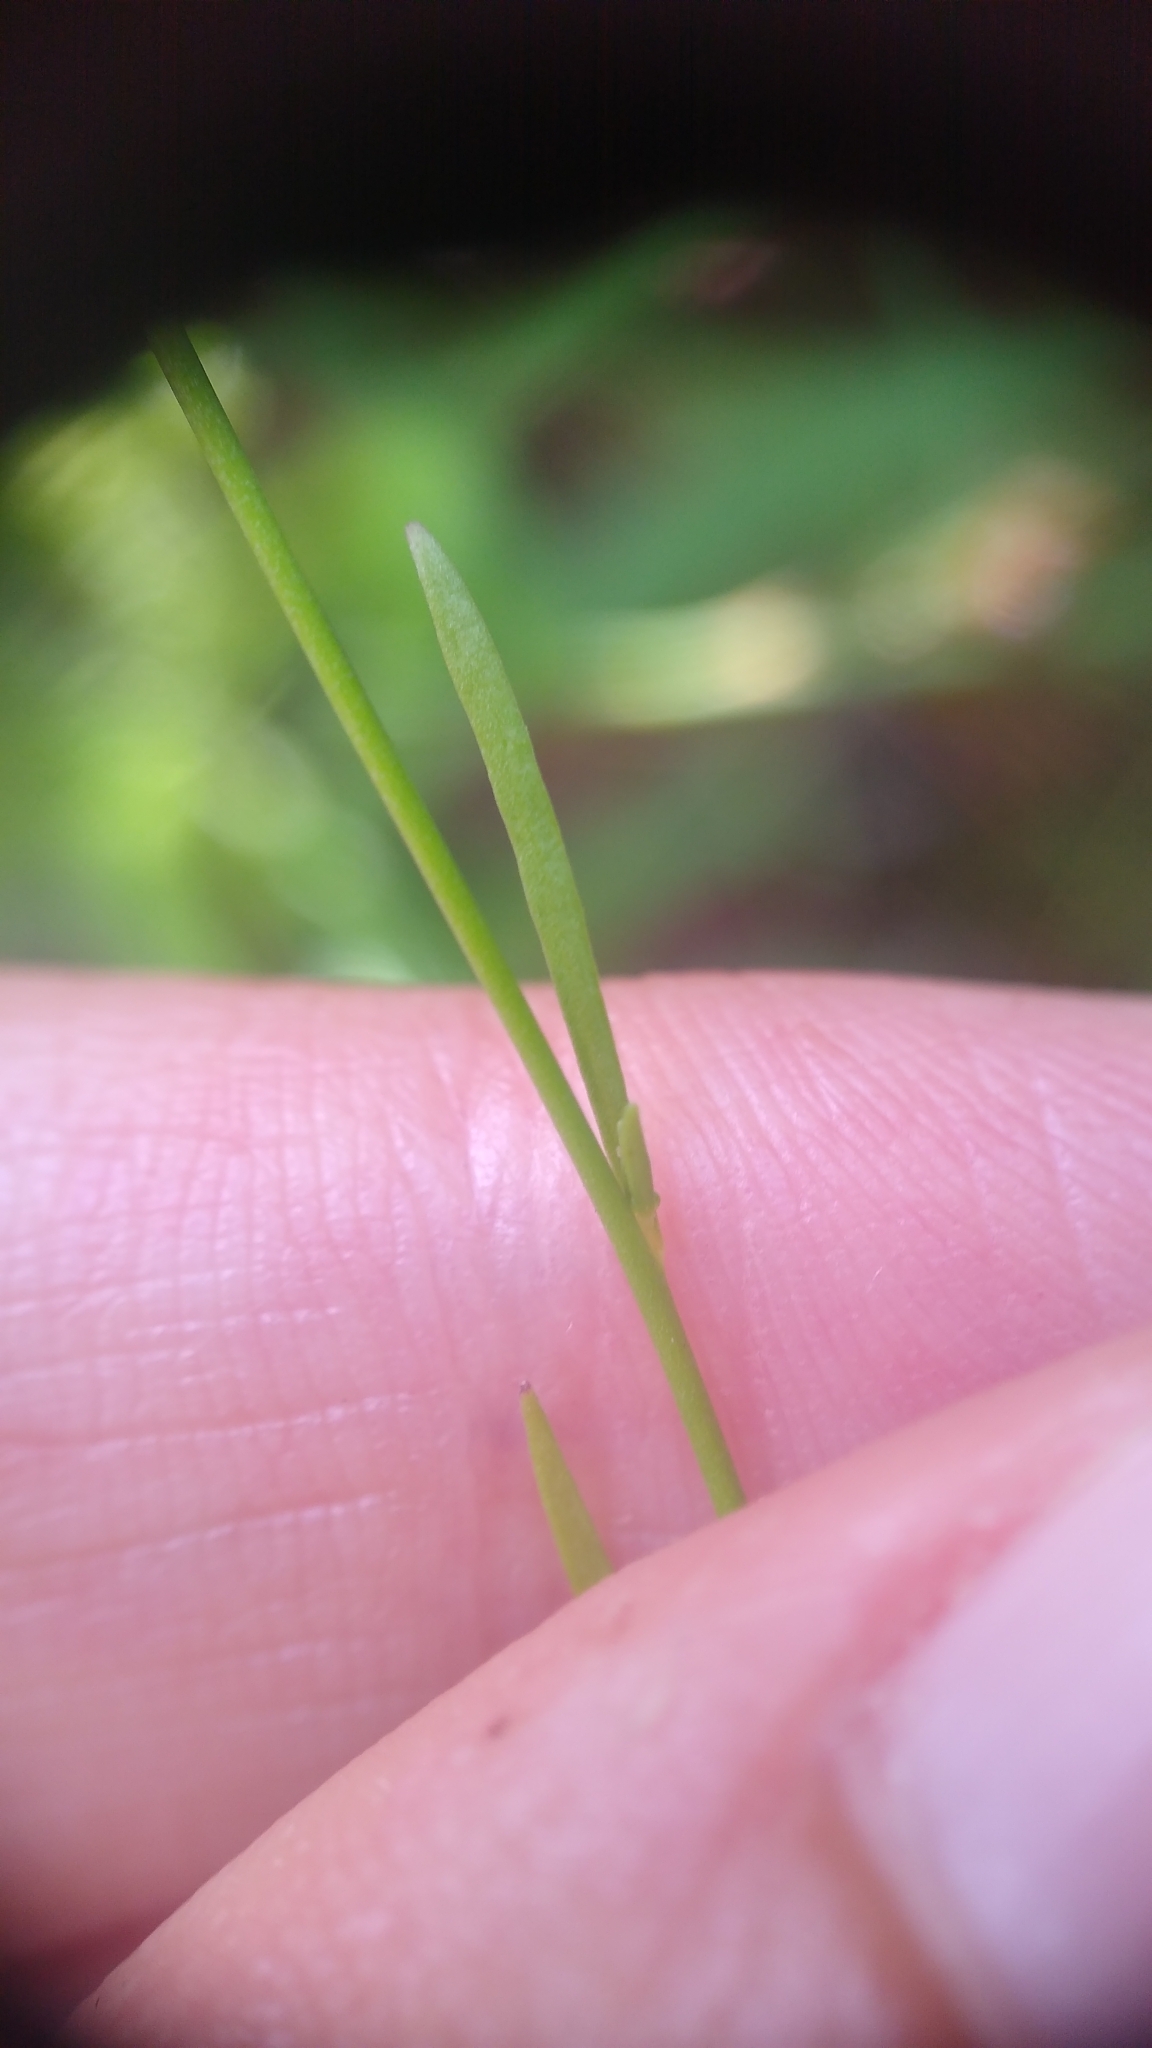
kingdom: Plantae
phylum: Tracheophyta
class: Magnoliopsida
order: Lamiales
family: Plantaginaceae
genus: Nuttallanthus
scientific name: Nuttallanthus canadensis
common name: Blue toadflax
